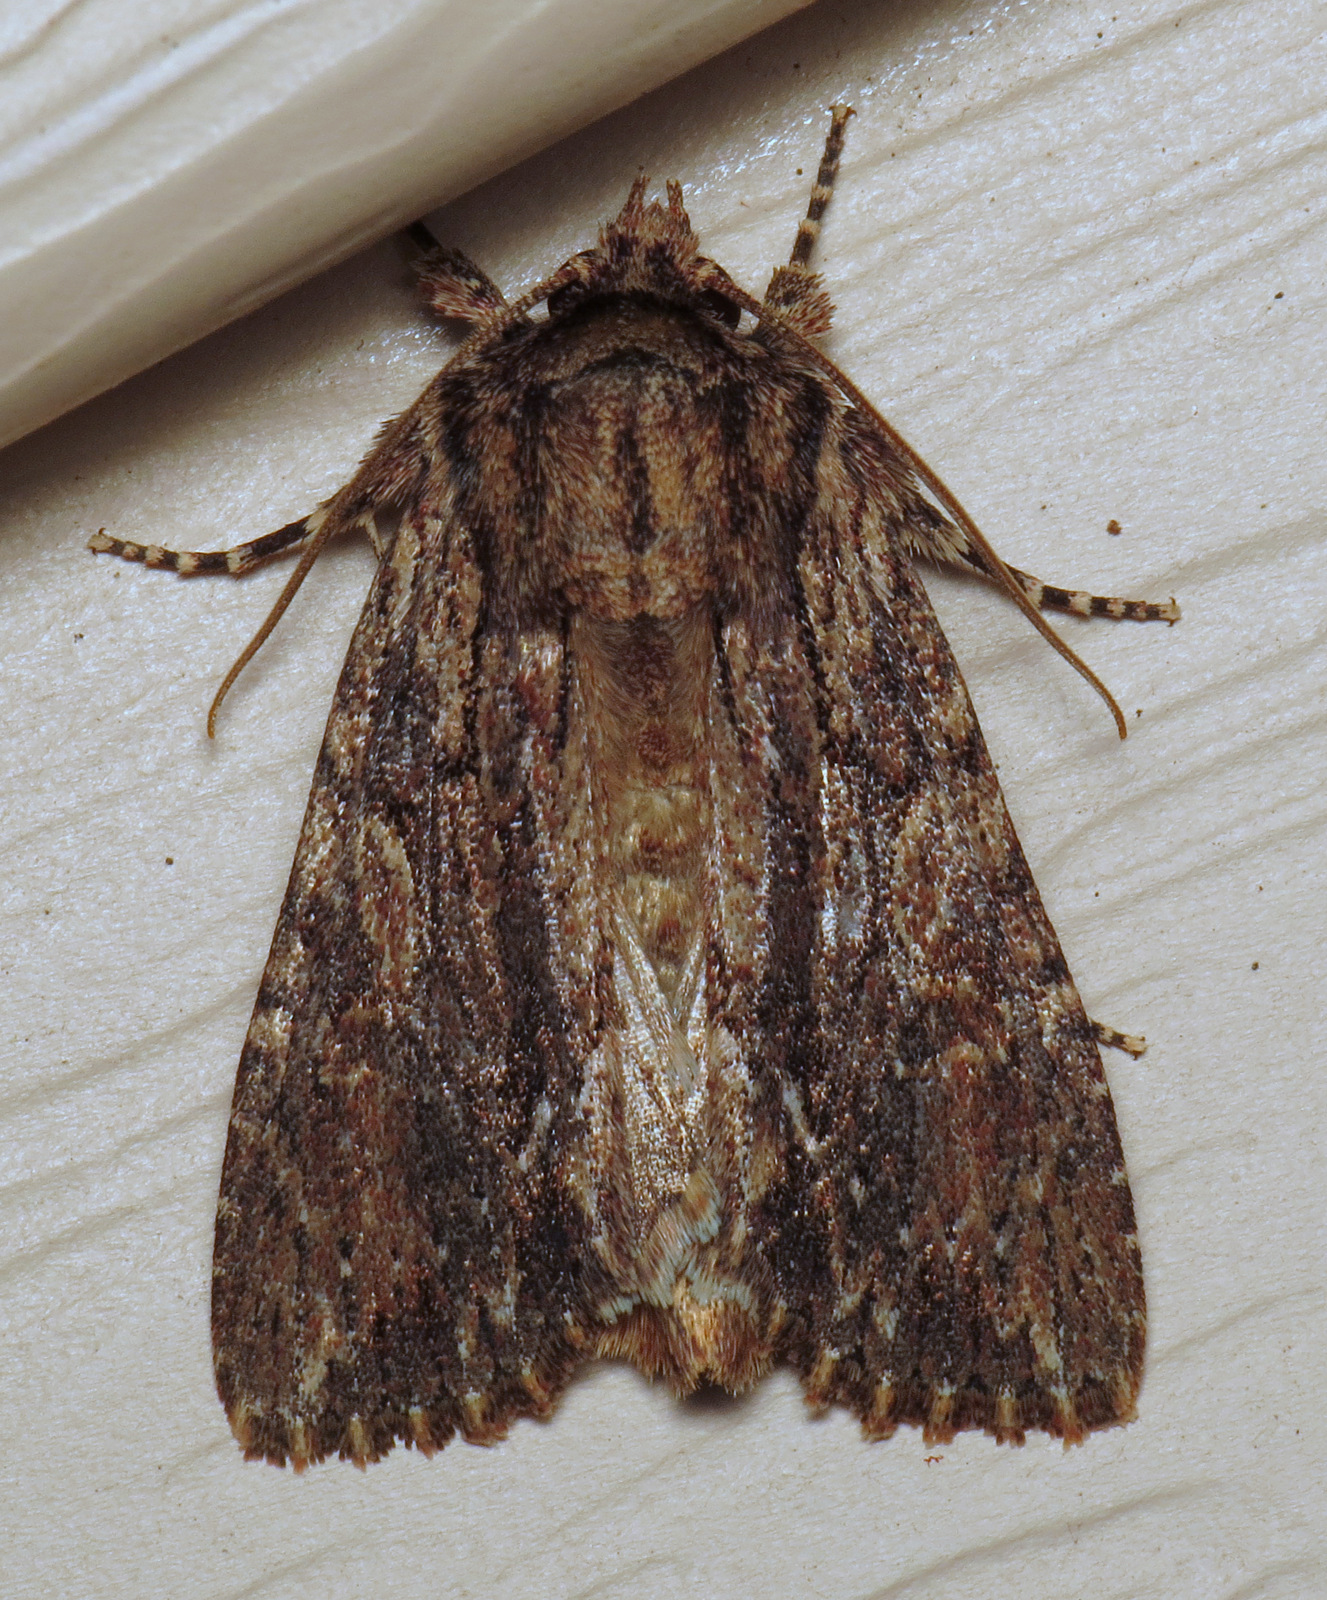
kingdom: Animalia
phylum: Arthropoda
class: Insecta
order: Lepidoptera
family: Noctuidae
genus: Achatia
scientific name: Achatia confusa
